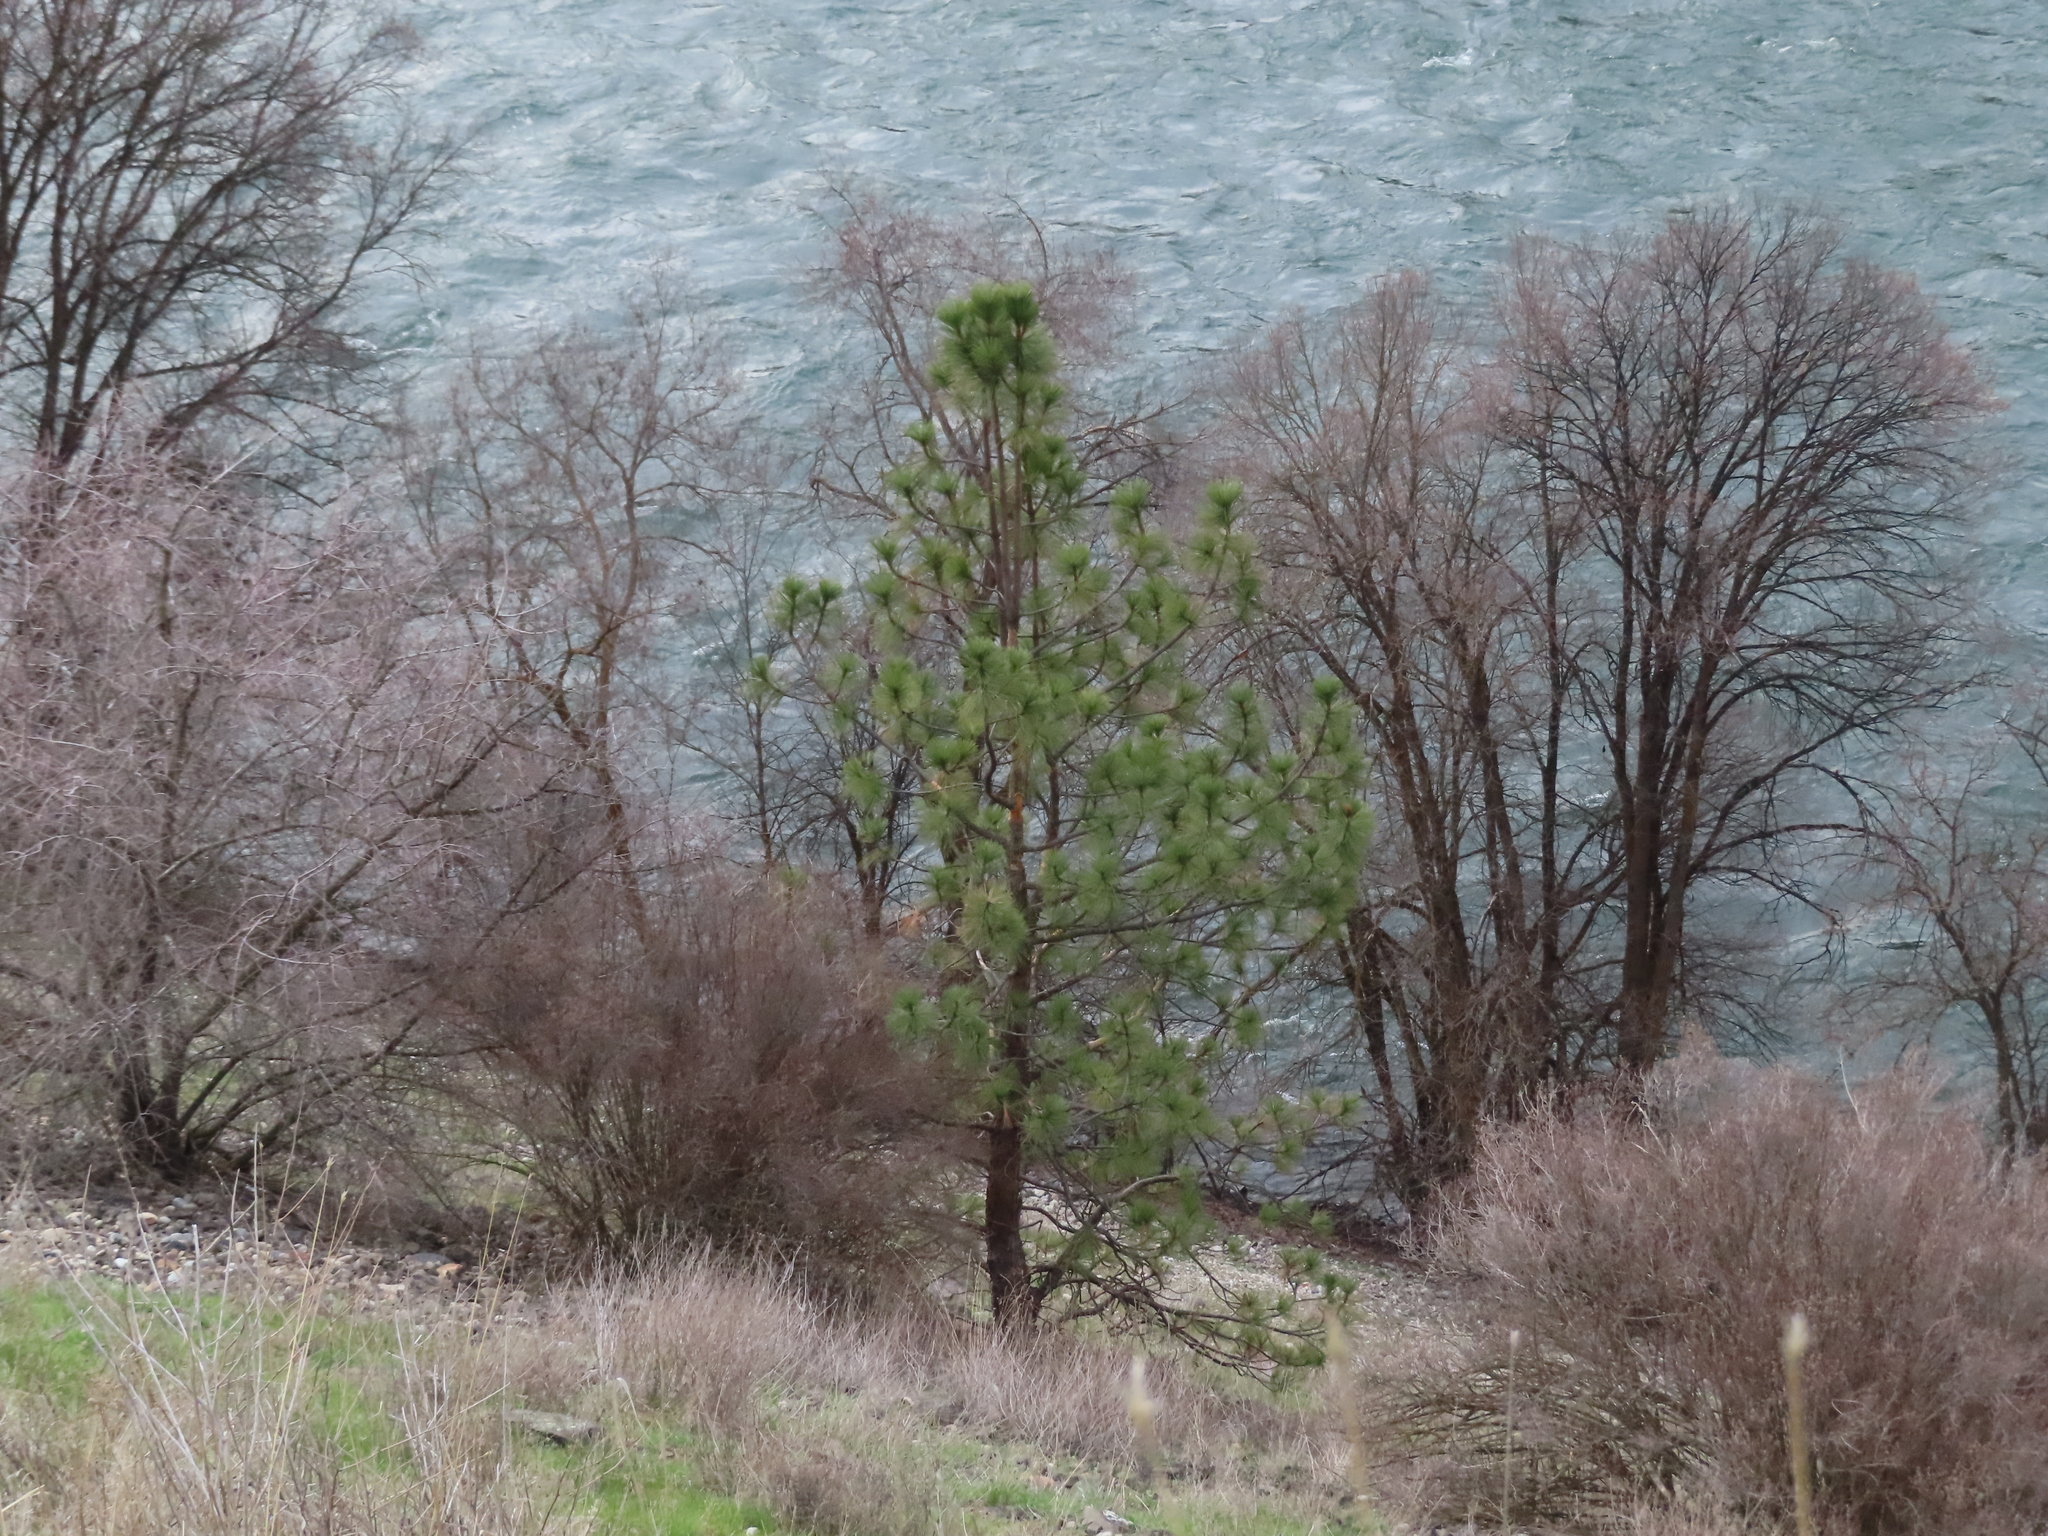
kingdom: Plantae
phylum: Tracheophyta
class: Pinopsida
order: Pinales
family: Pinaceae
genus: Pinus
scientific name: Pinus ponderosa
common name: Western yellow-pine
